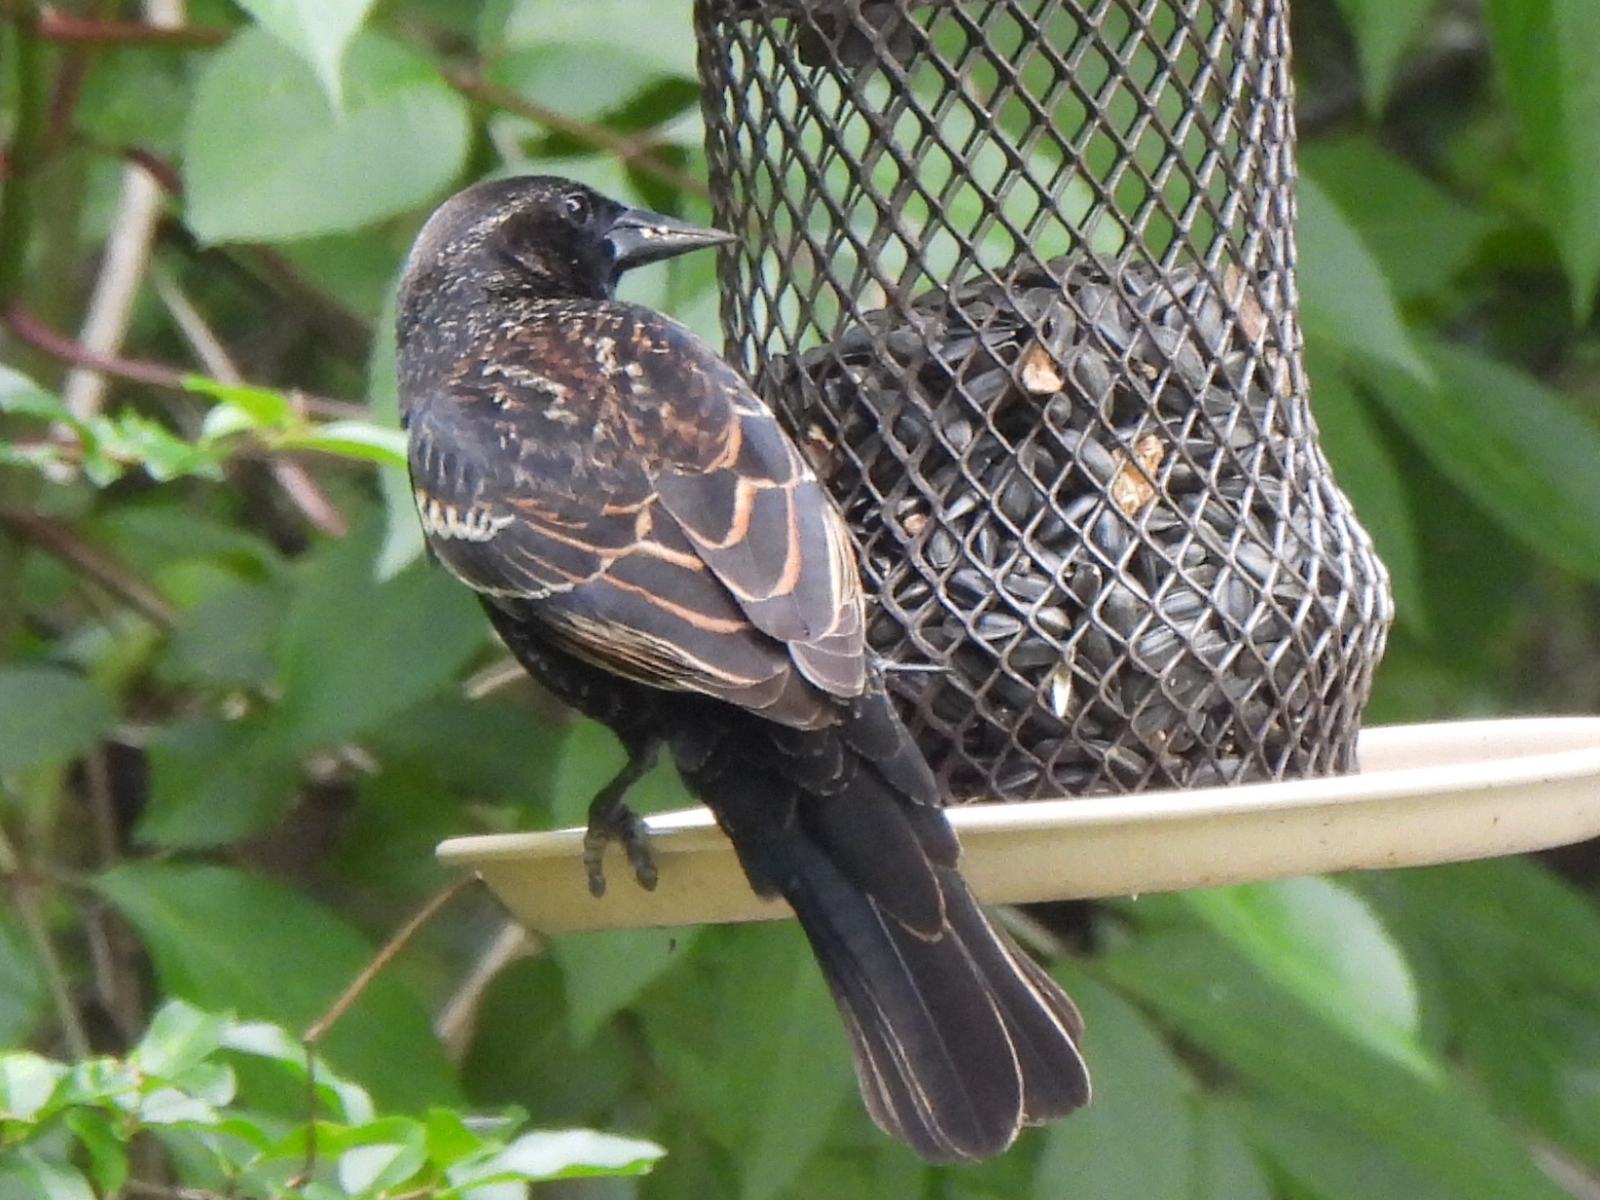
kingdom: Animalia
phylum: Chordata
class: Aves
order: Passeriformes
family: Icteridae
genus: Agelaius
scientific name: Agelaius phoeniceus
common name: Red-winged blackbird
